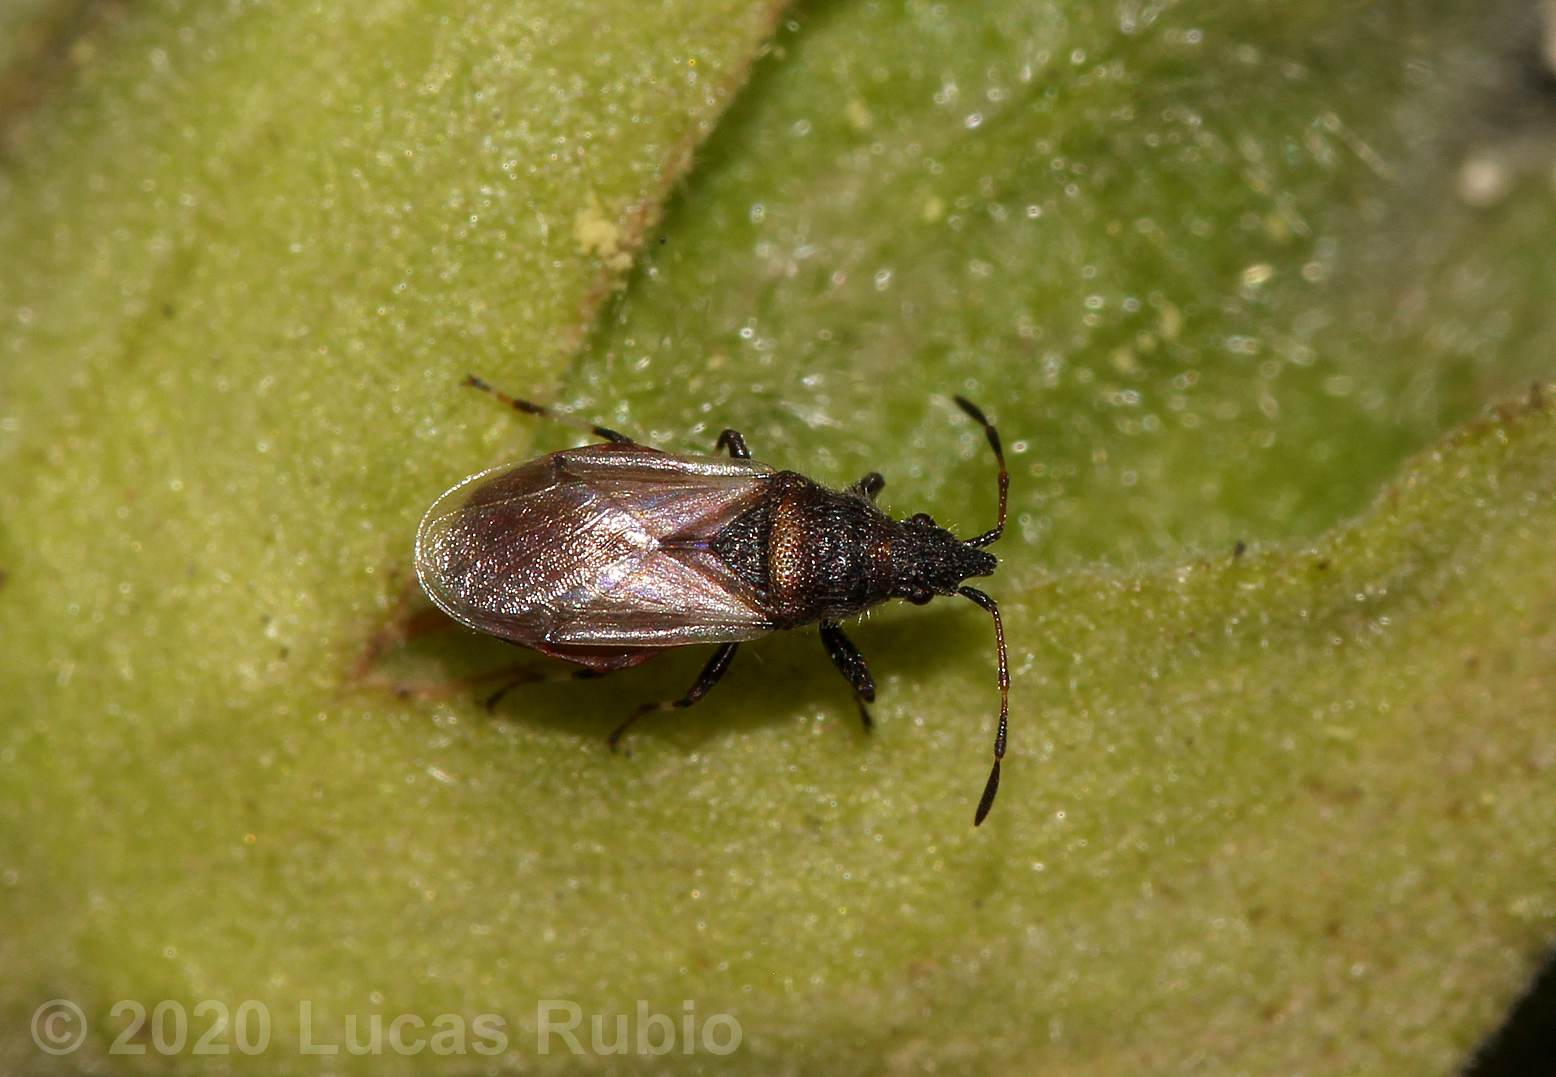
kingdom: Animalia
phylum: Arthropoda
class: Insecta
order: Hemiptera
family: Oxycarenidae
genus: Oxycarenus
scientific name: Oxycarenus hyalinipennis
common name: Cotton seed bug
